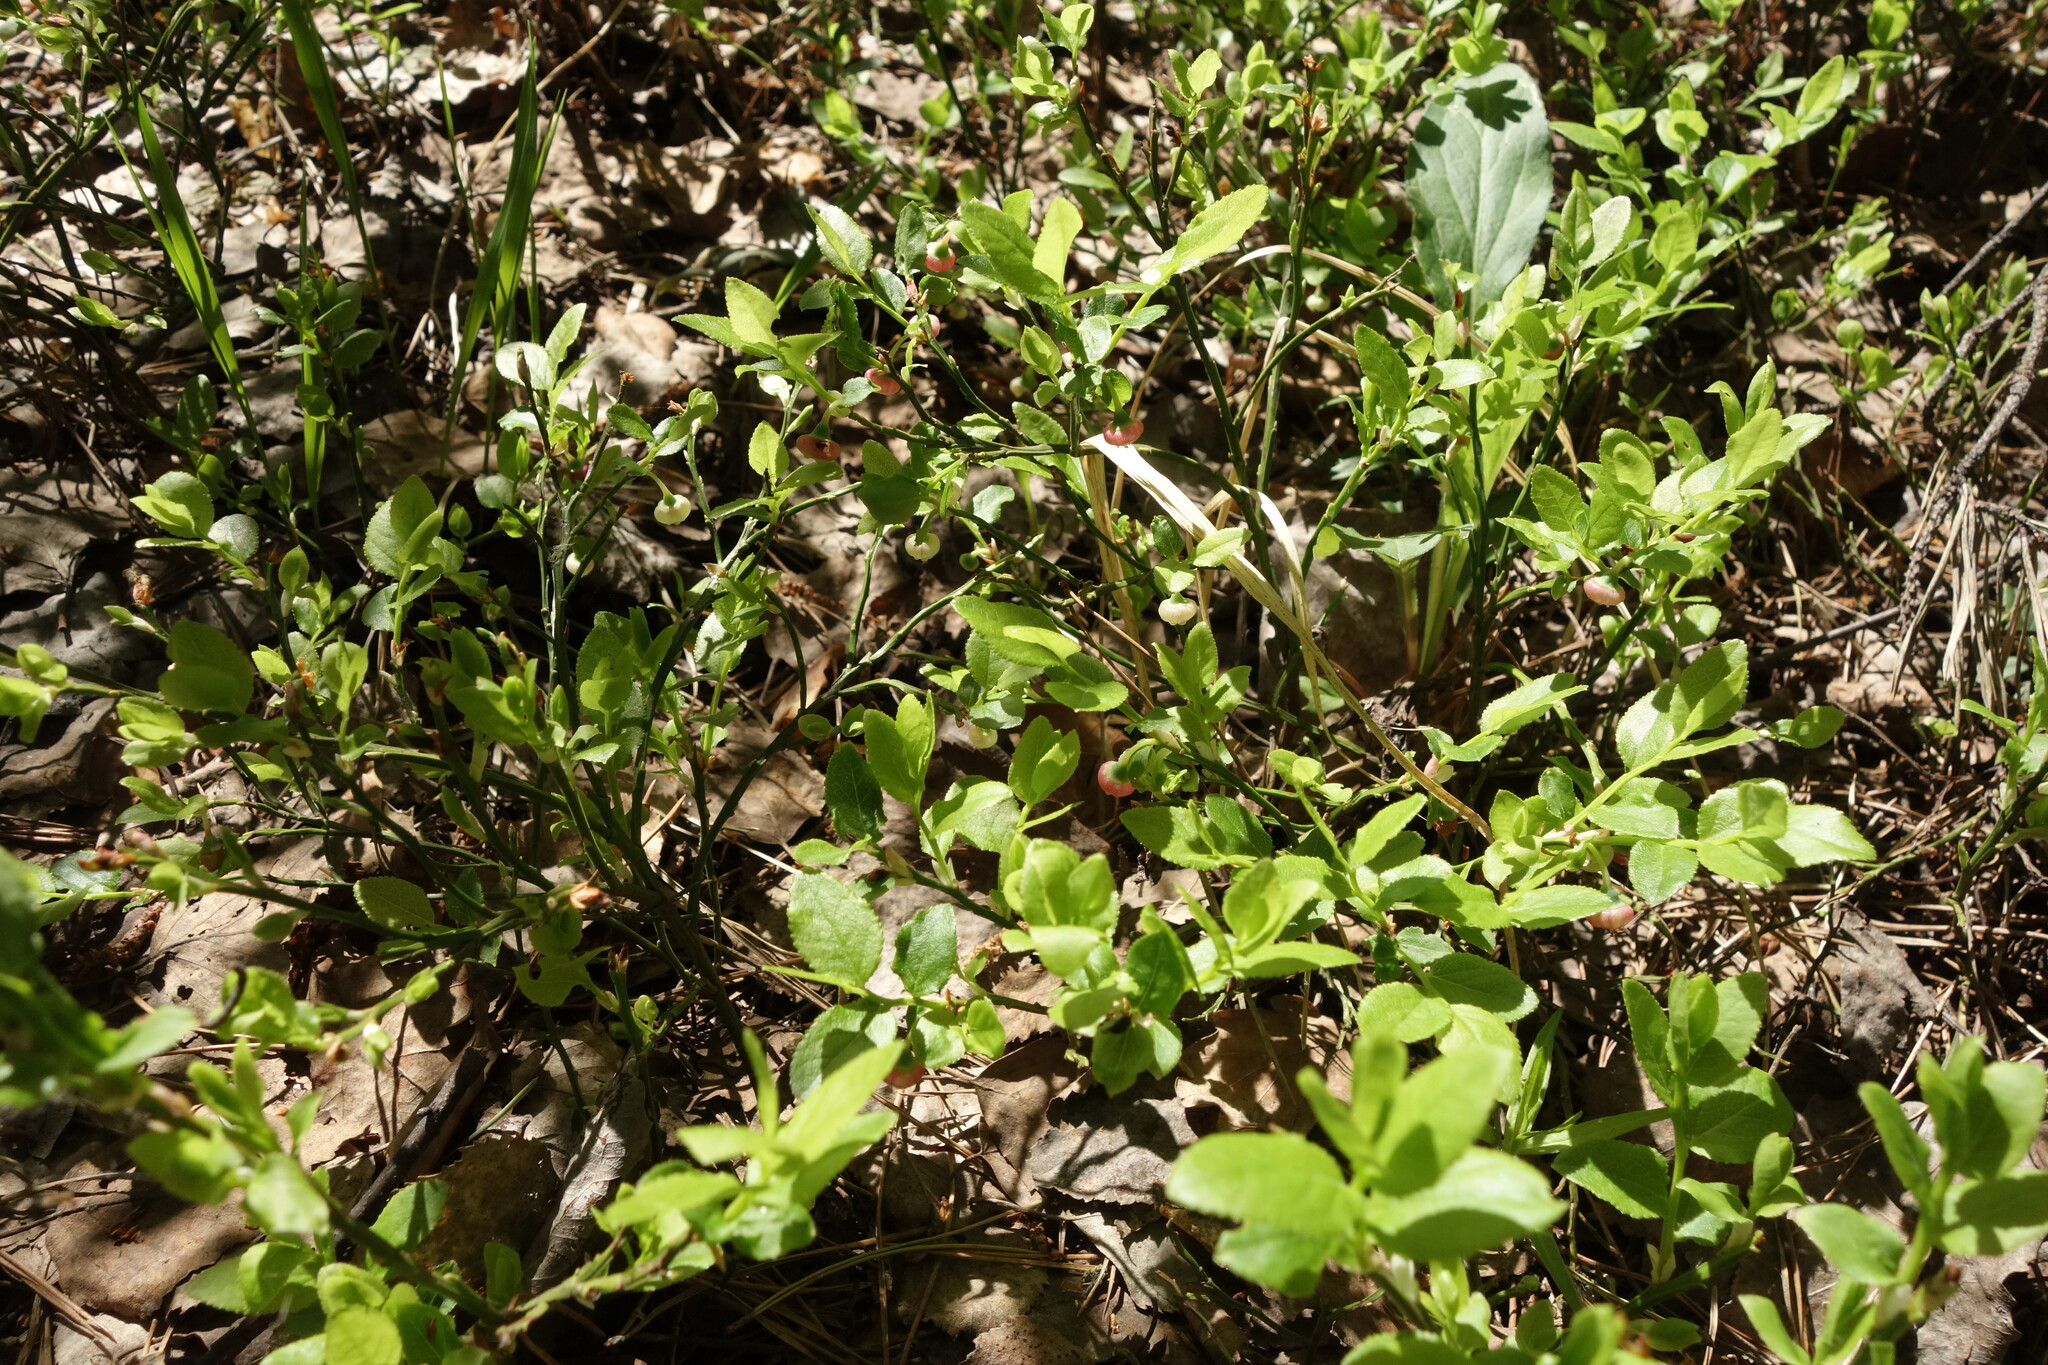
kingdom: Plantae
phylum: Tracheophyta
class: Magnoliopsida
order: Ericales
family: Ericaceae
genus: Vaccinium
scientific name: Vaccinium myrtillus
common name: Bilberry
